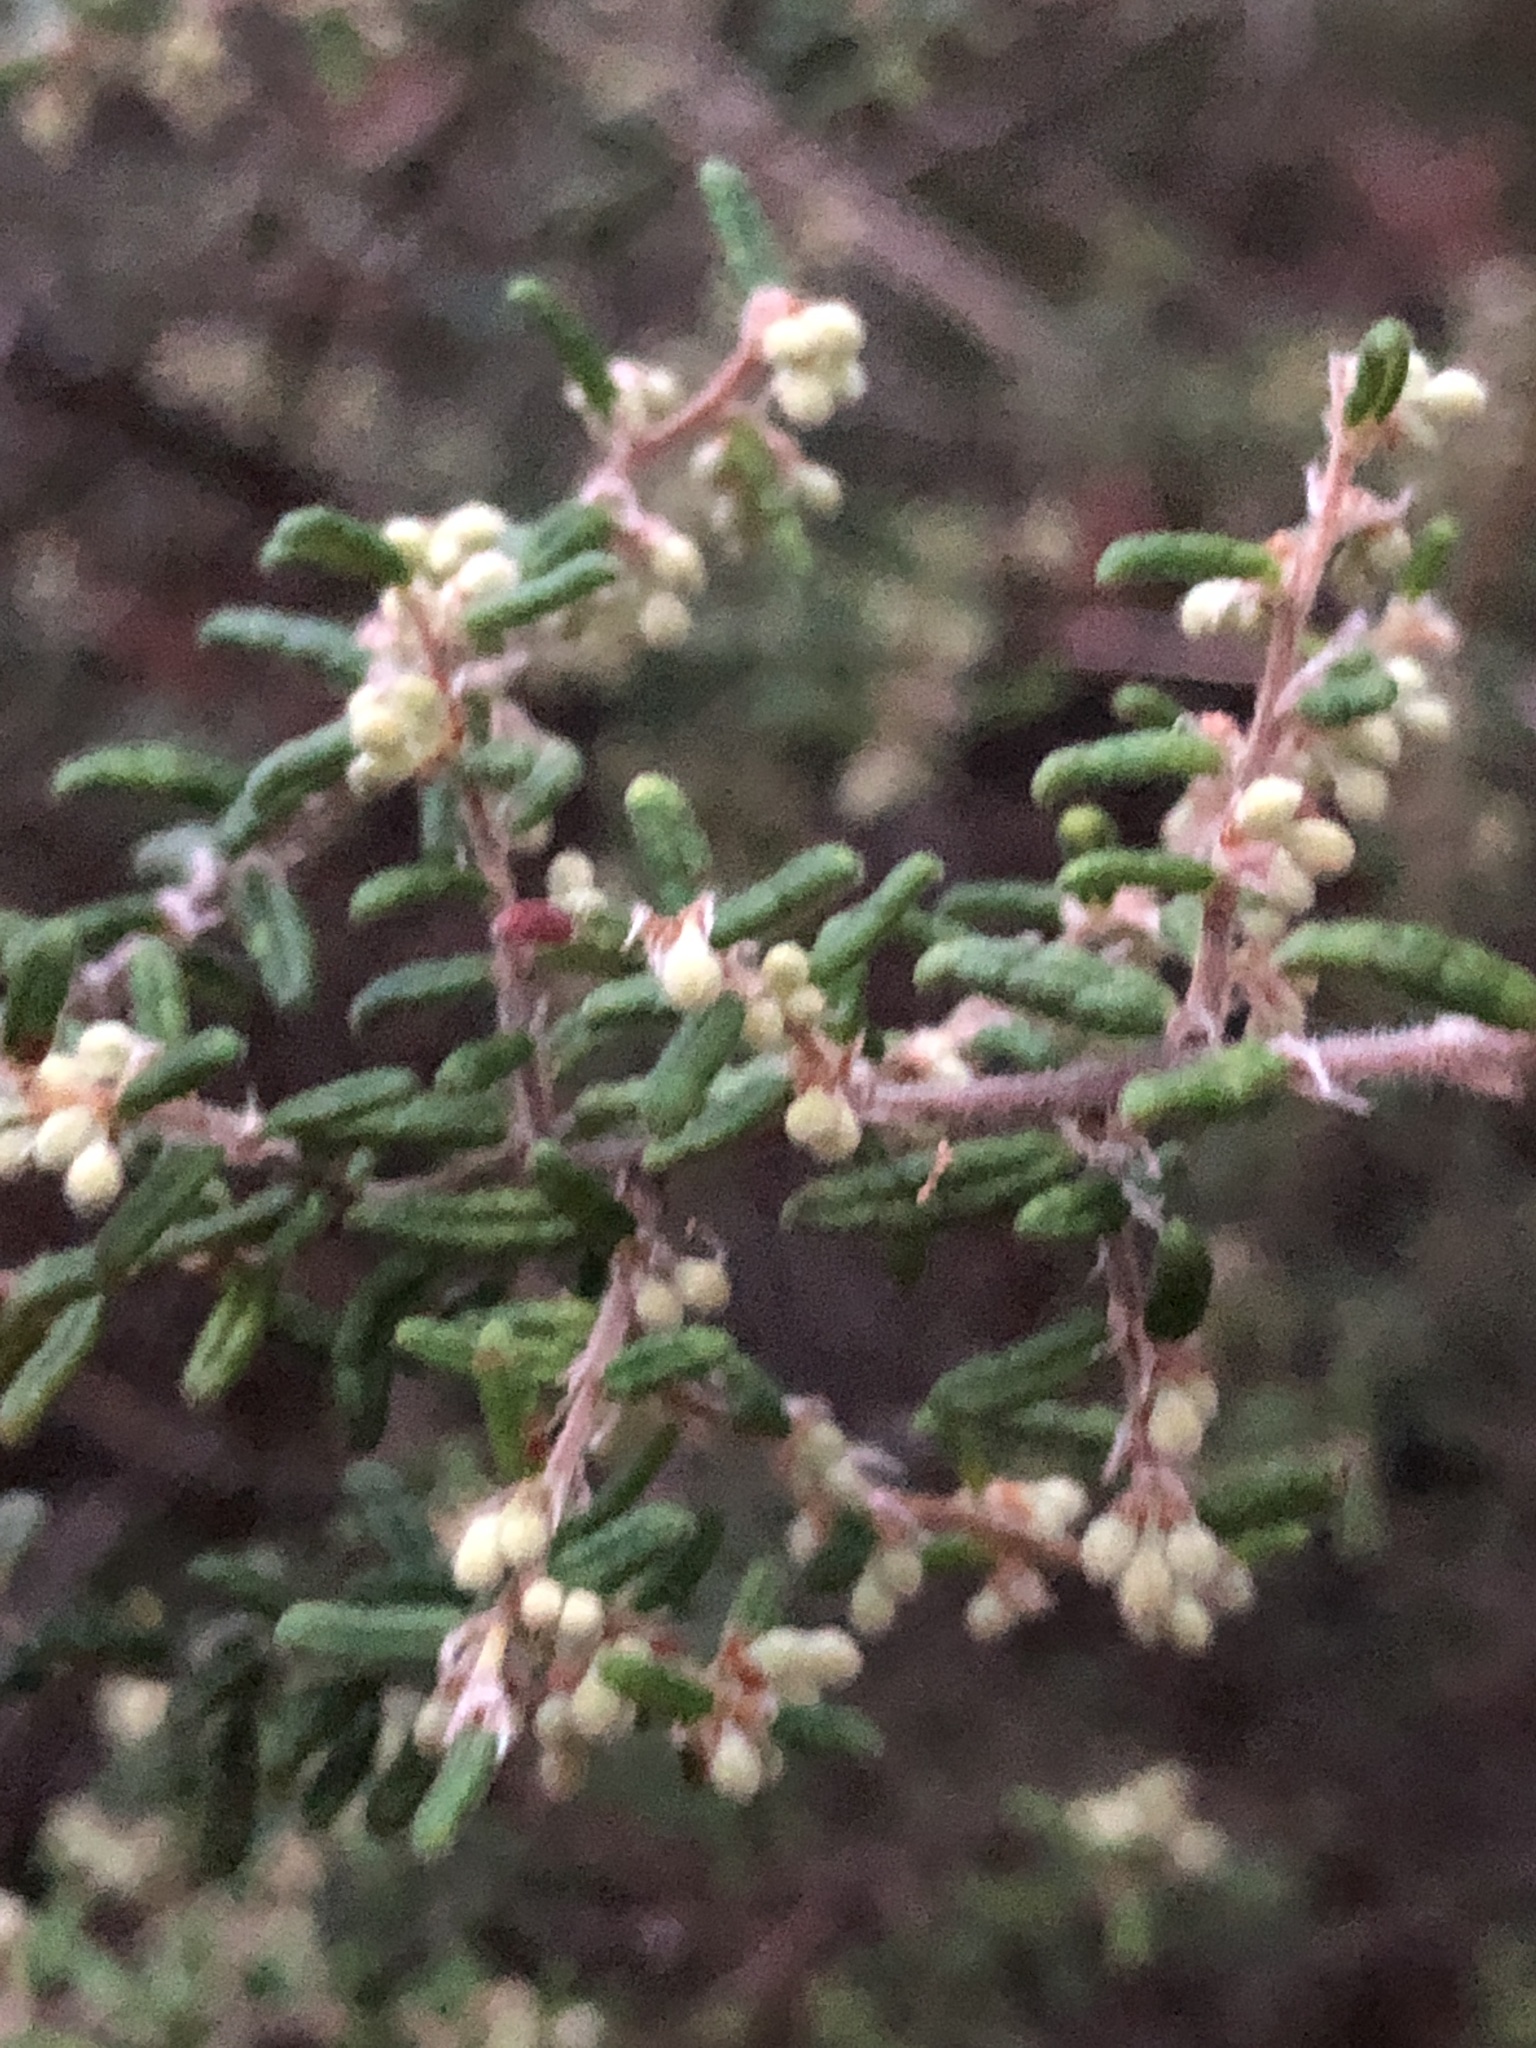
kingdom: Plantae
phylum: Tracheophyta
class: Magnoliopsida
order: Rosales
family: Rhamnaceae
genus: Pomaderris
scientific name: Pomaderris amoena
